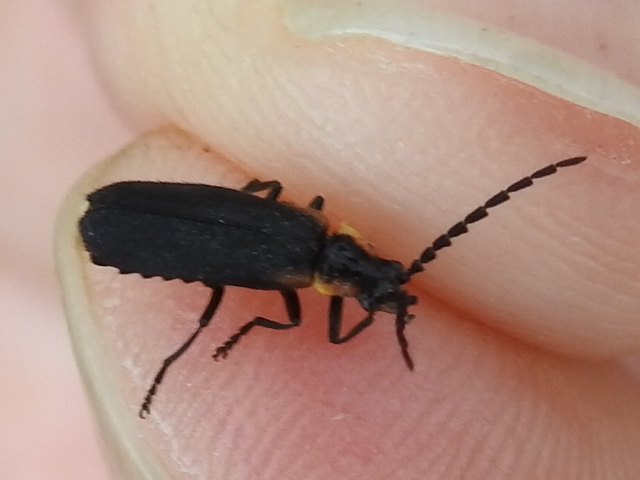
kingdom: Animalia
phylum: Arthropoda
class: Insecta
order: Coleoptera
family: Cantharidae
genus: Polemius
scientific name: Polemius laticornis
